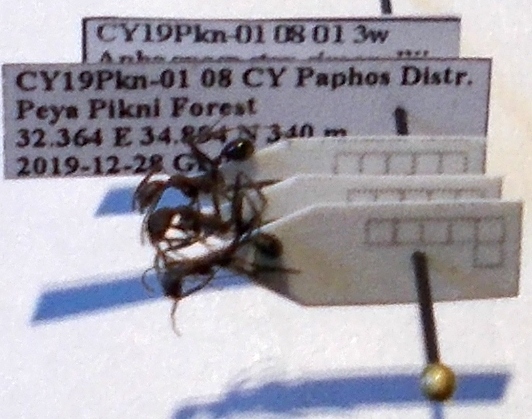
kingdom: Animalia
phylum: Arthropoda
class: Insecta
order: Hymenoptera
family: Formicidae
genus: Aphaenogaster
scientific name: Aphaenogaster simonellii
